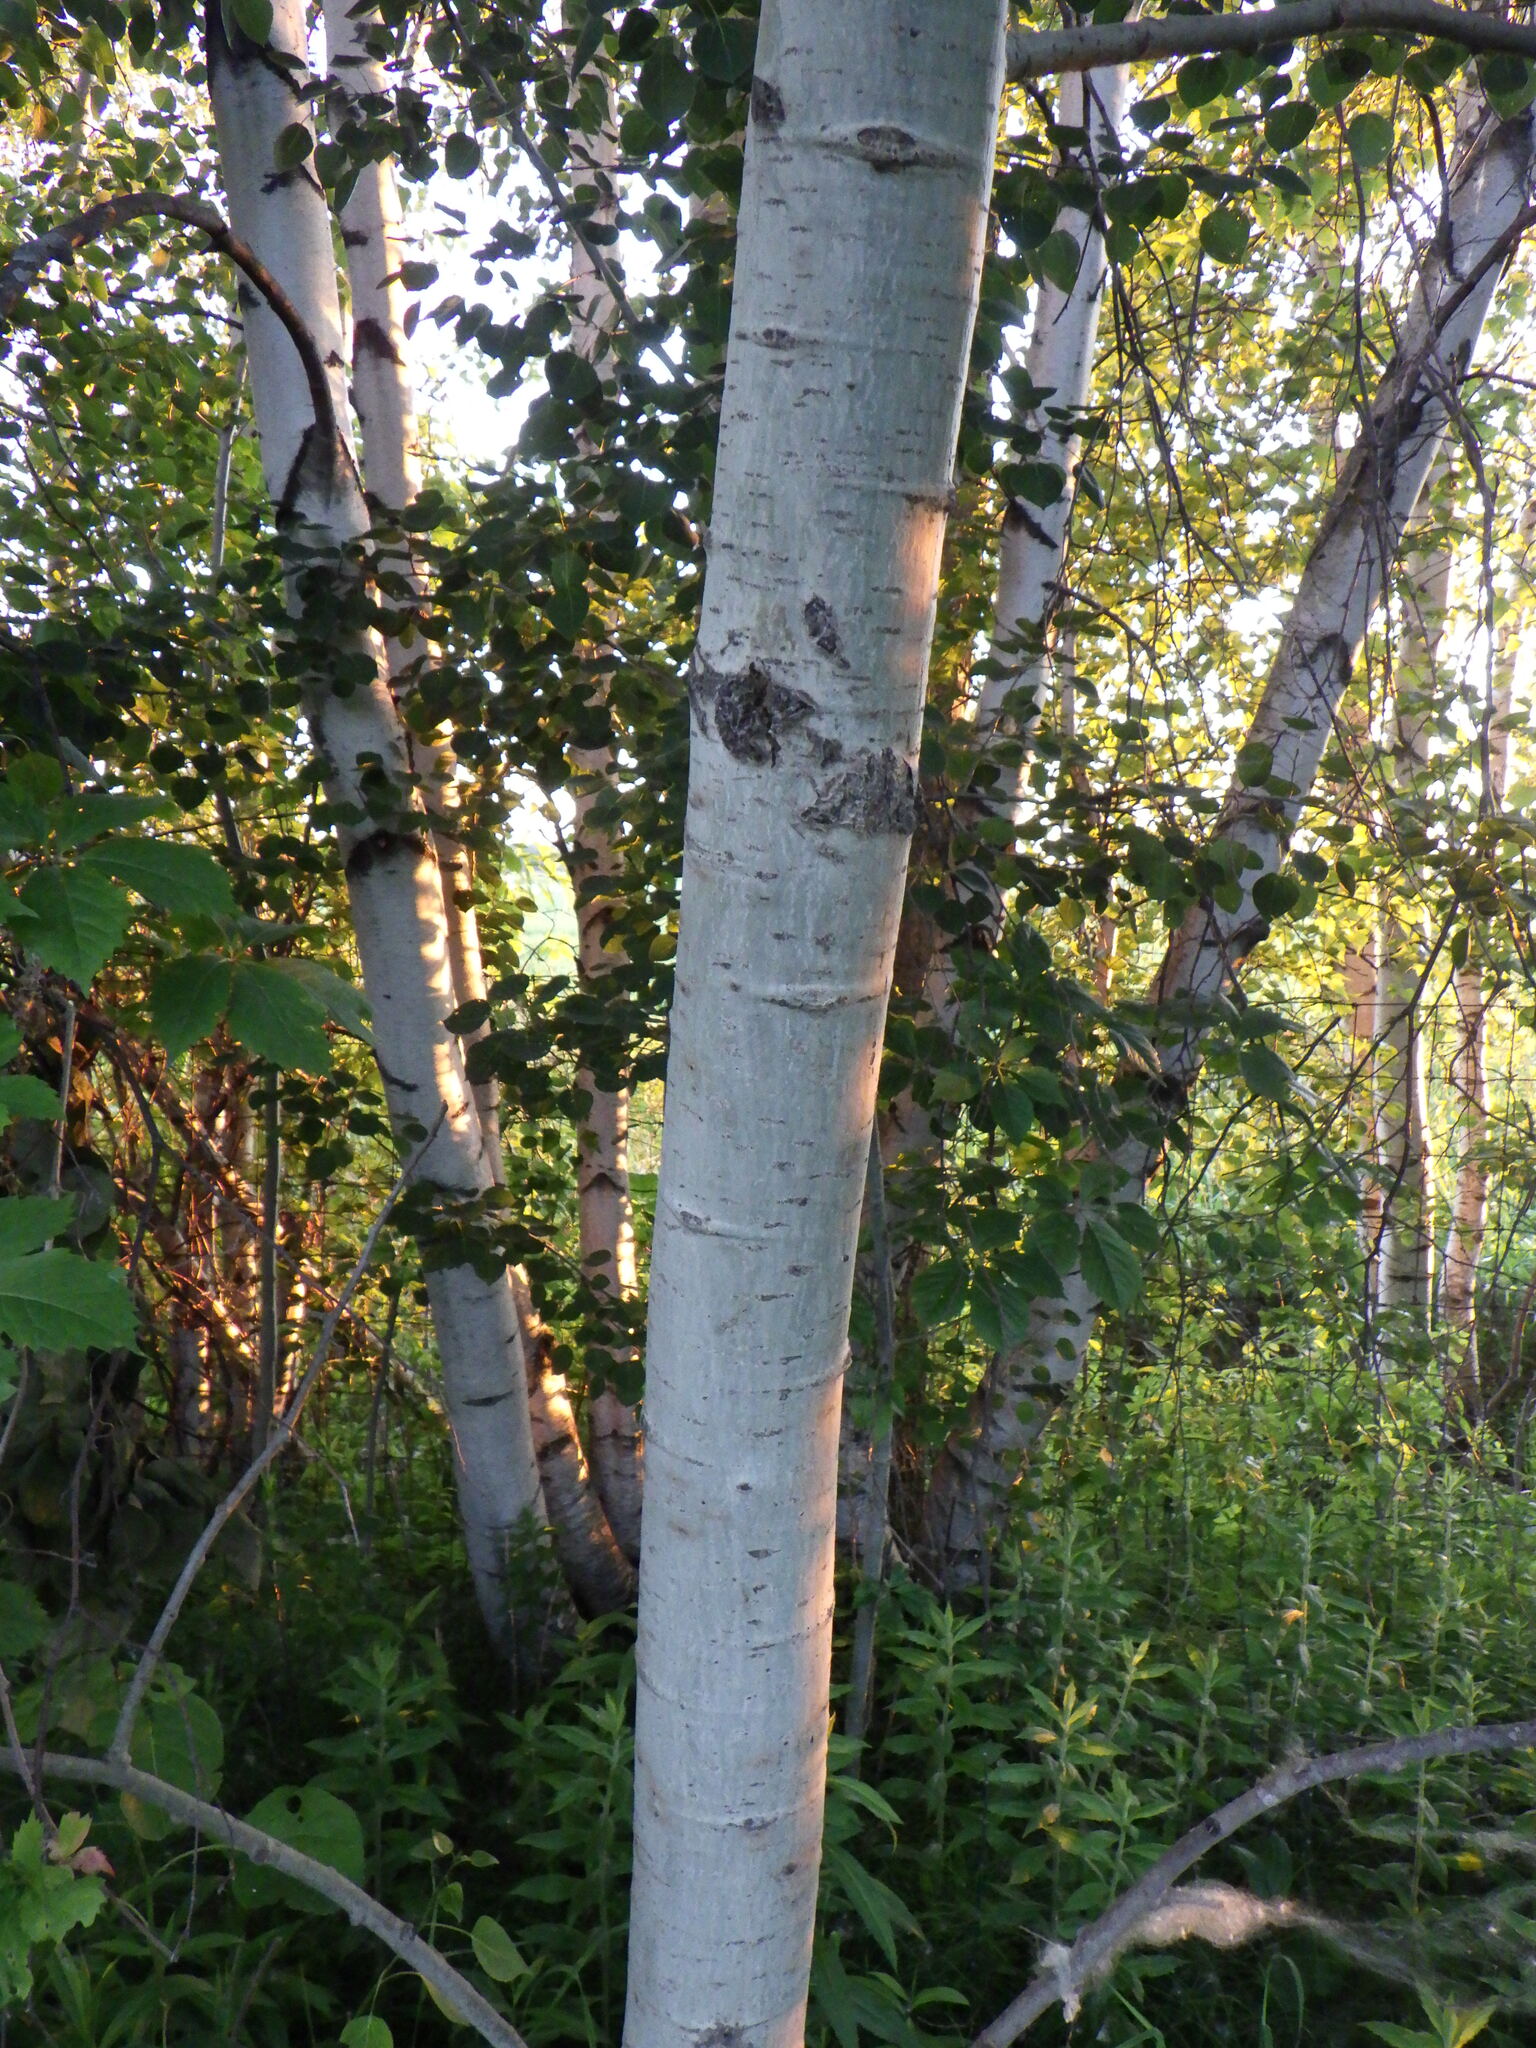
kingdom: Plantae
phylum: Tracheophyta
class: Magnoliopsida
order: Malpighiales
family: Salicaceae
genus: Populus
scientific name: Populus tremuloides
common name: Quaking aspen
